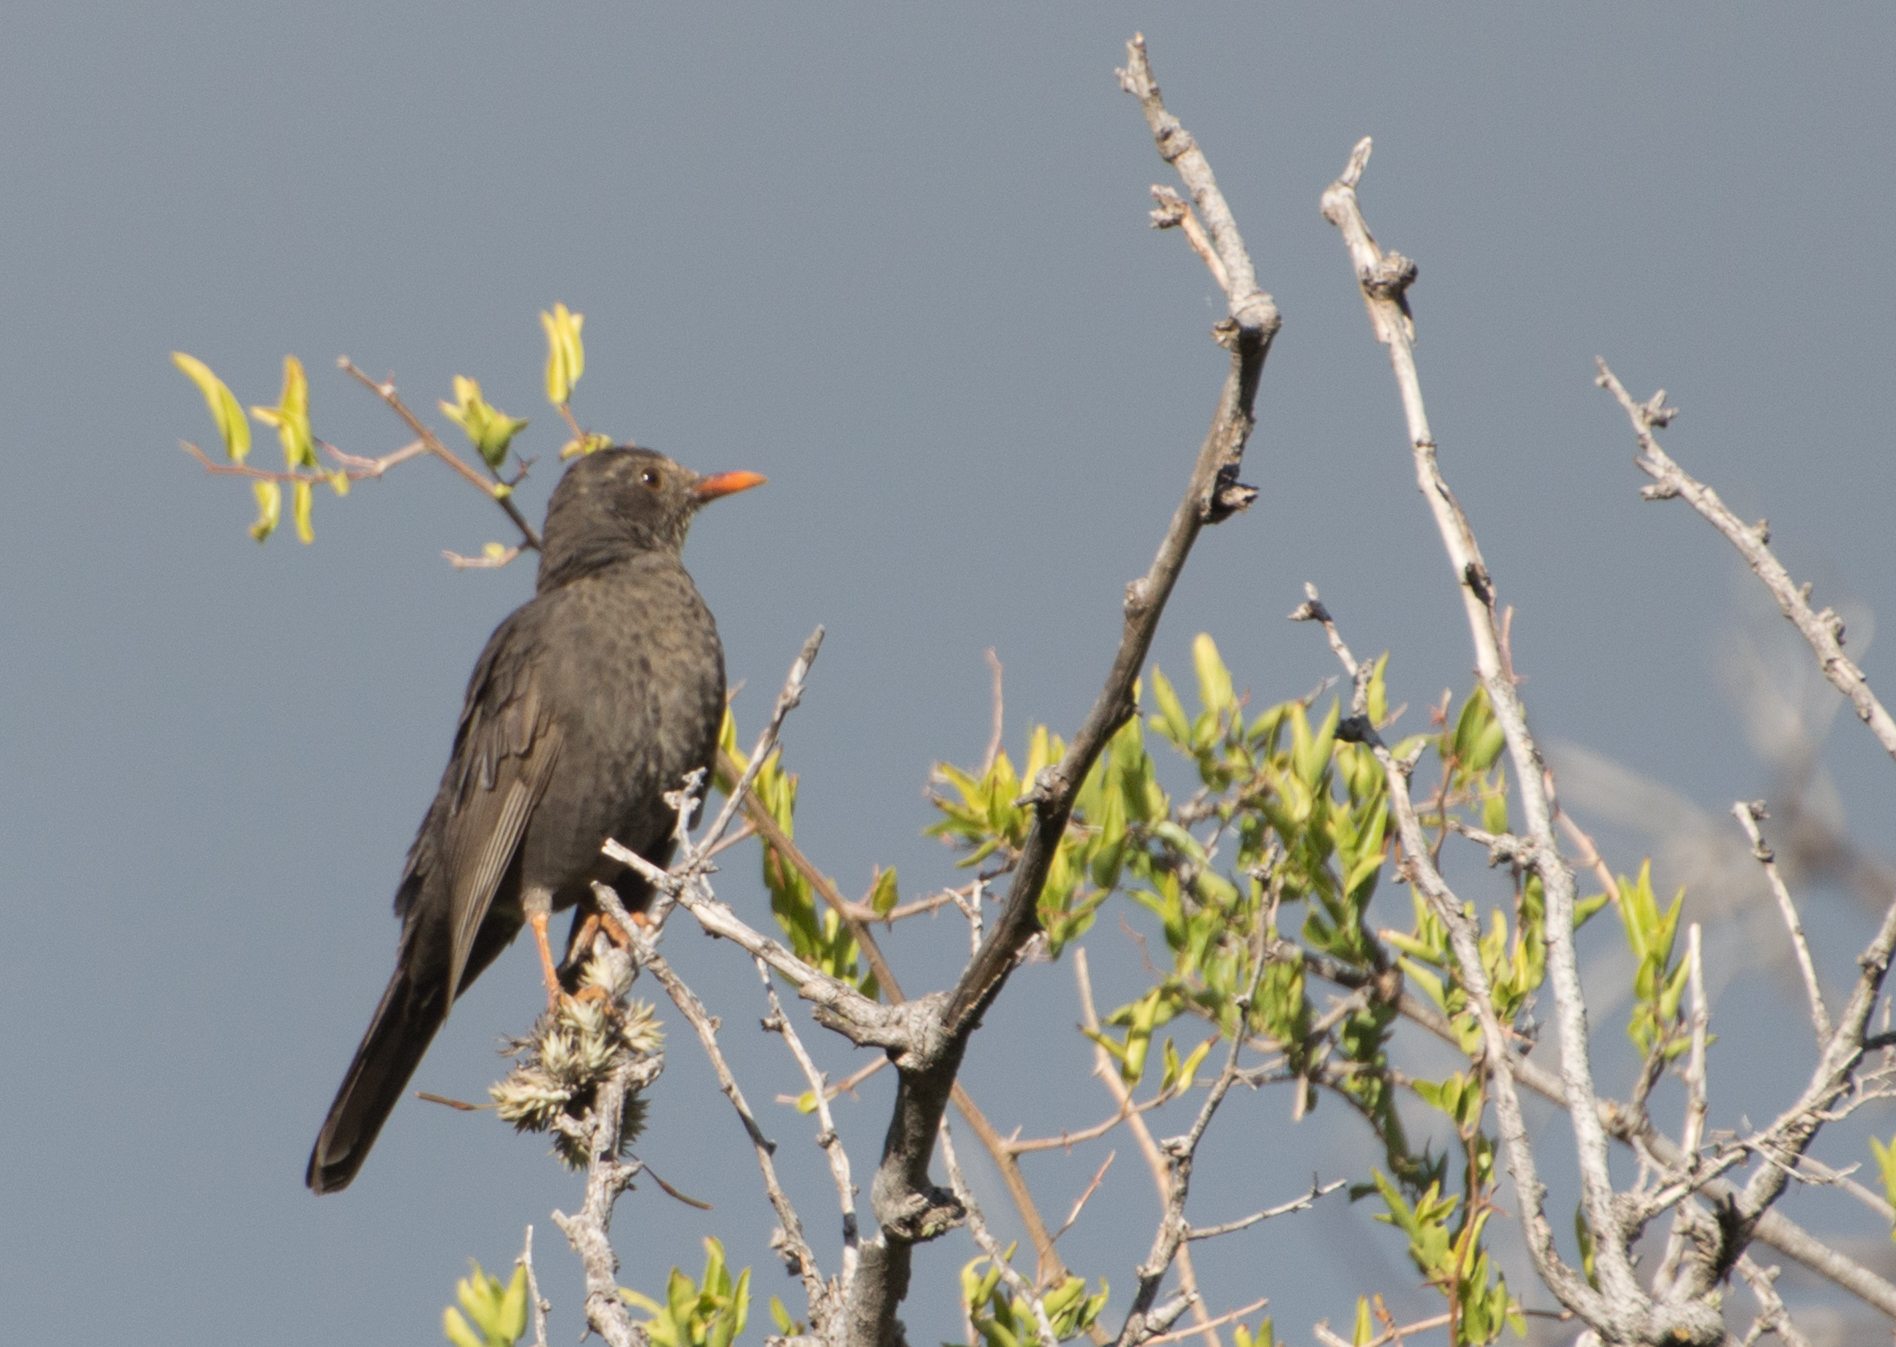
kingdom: Animalia
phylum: Chordata
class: Aves
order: Passeriformes
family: Turdidae
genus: Turdus
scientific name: Turdus chiguanco
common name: Chiguanco thrush
